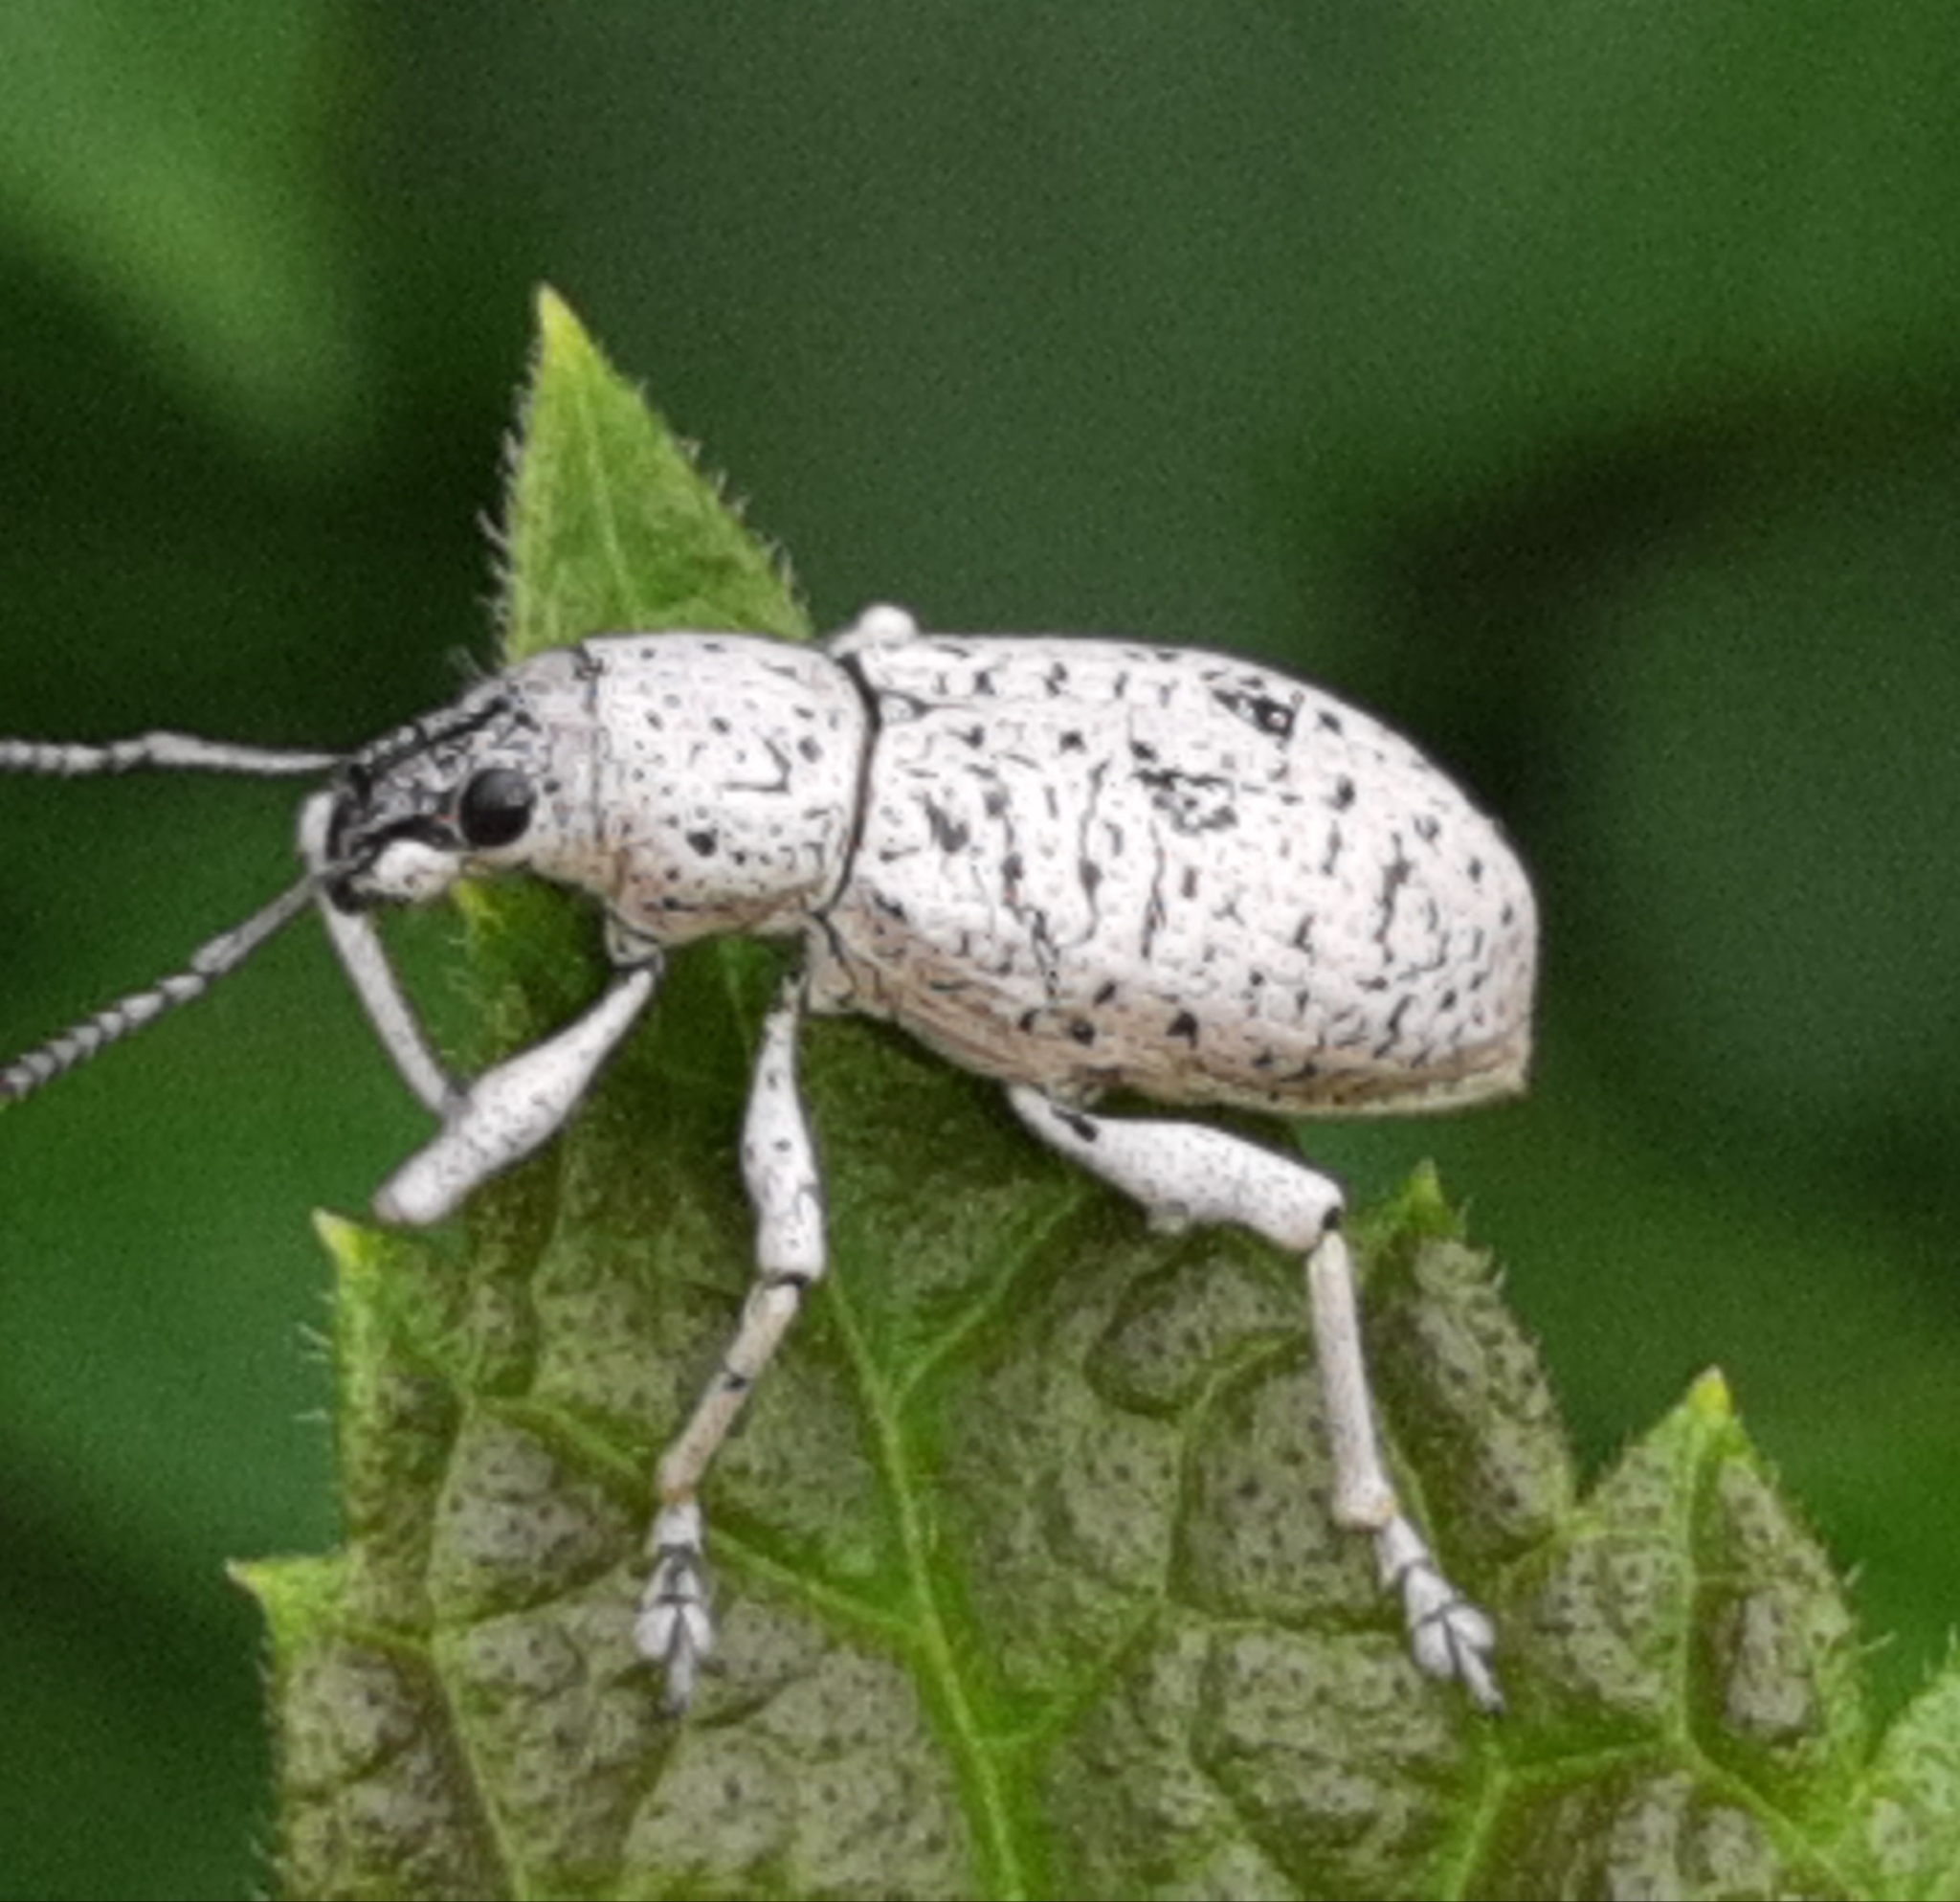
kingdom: Animalia
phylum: Arthropoda
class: Insecta
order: Coleoptera
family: Curculionidae
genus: Exophthalmus
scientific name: Exophthalmus scalptus
